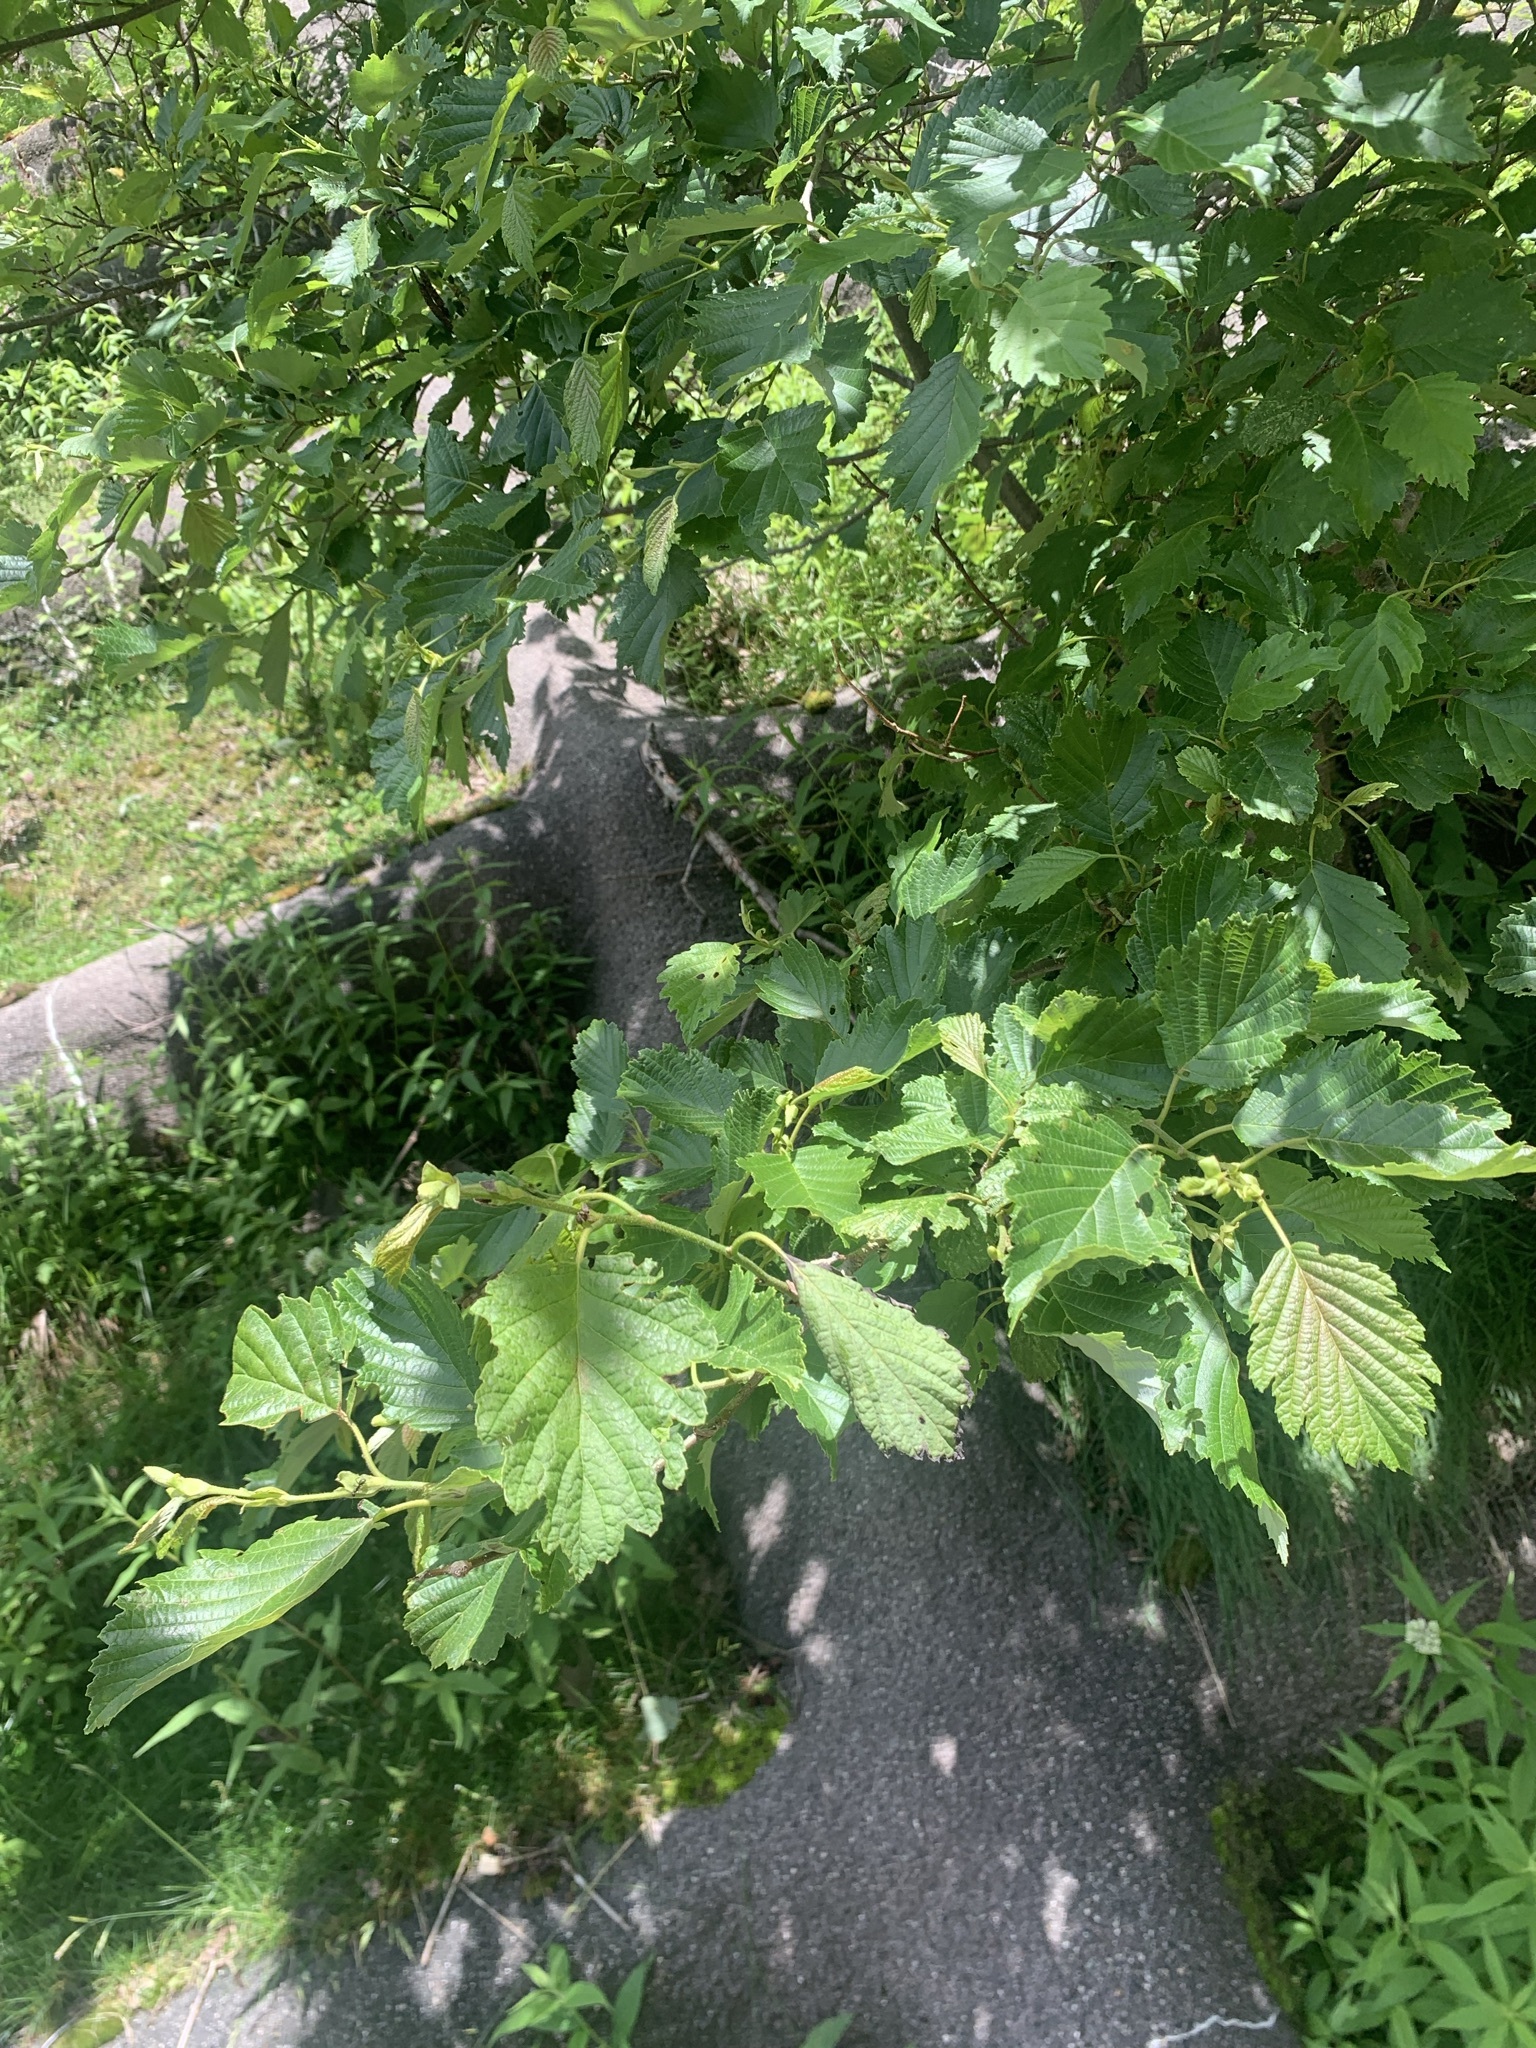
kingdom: Plantae
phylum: Tracheophyta
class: Magnoliopsida
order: Fagales
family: Betulaceae
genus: Alnus
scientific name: Alnus hirsuta
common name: Manchurian alder
